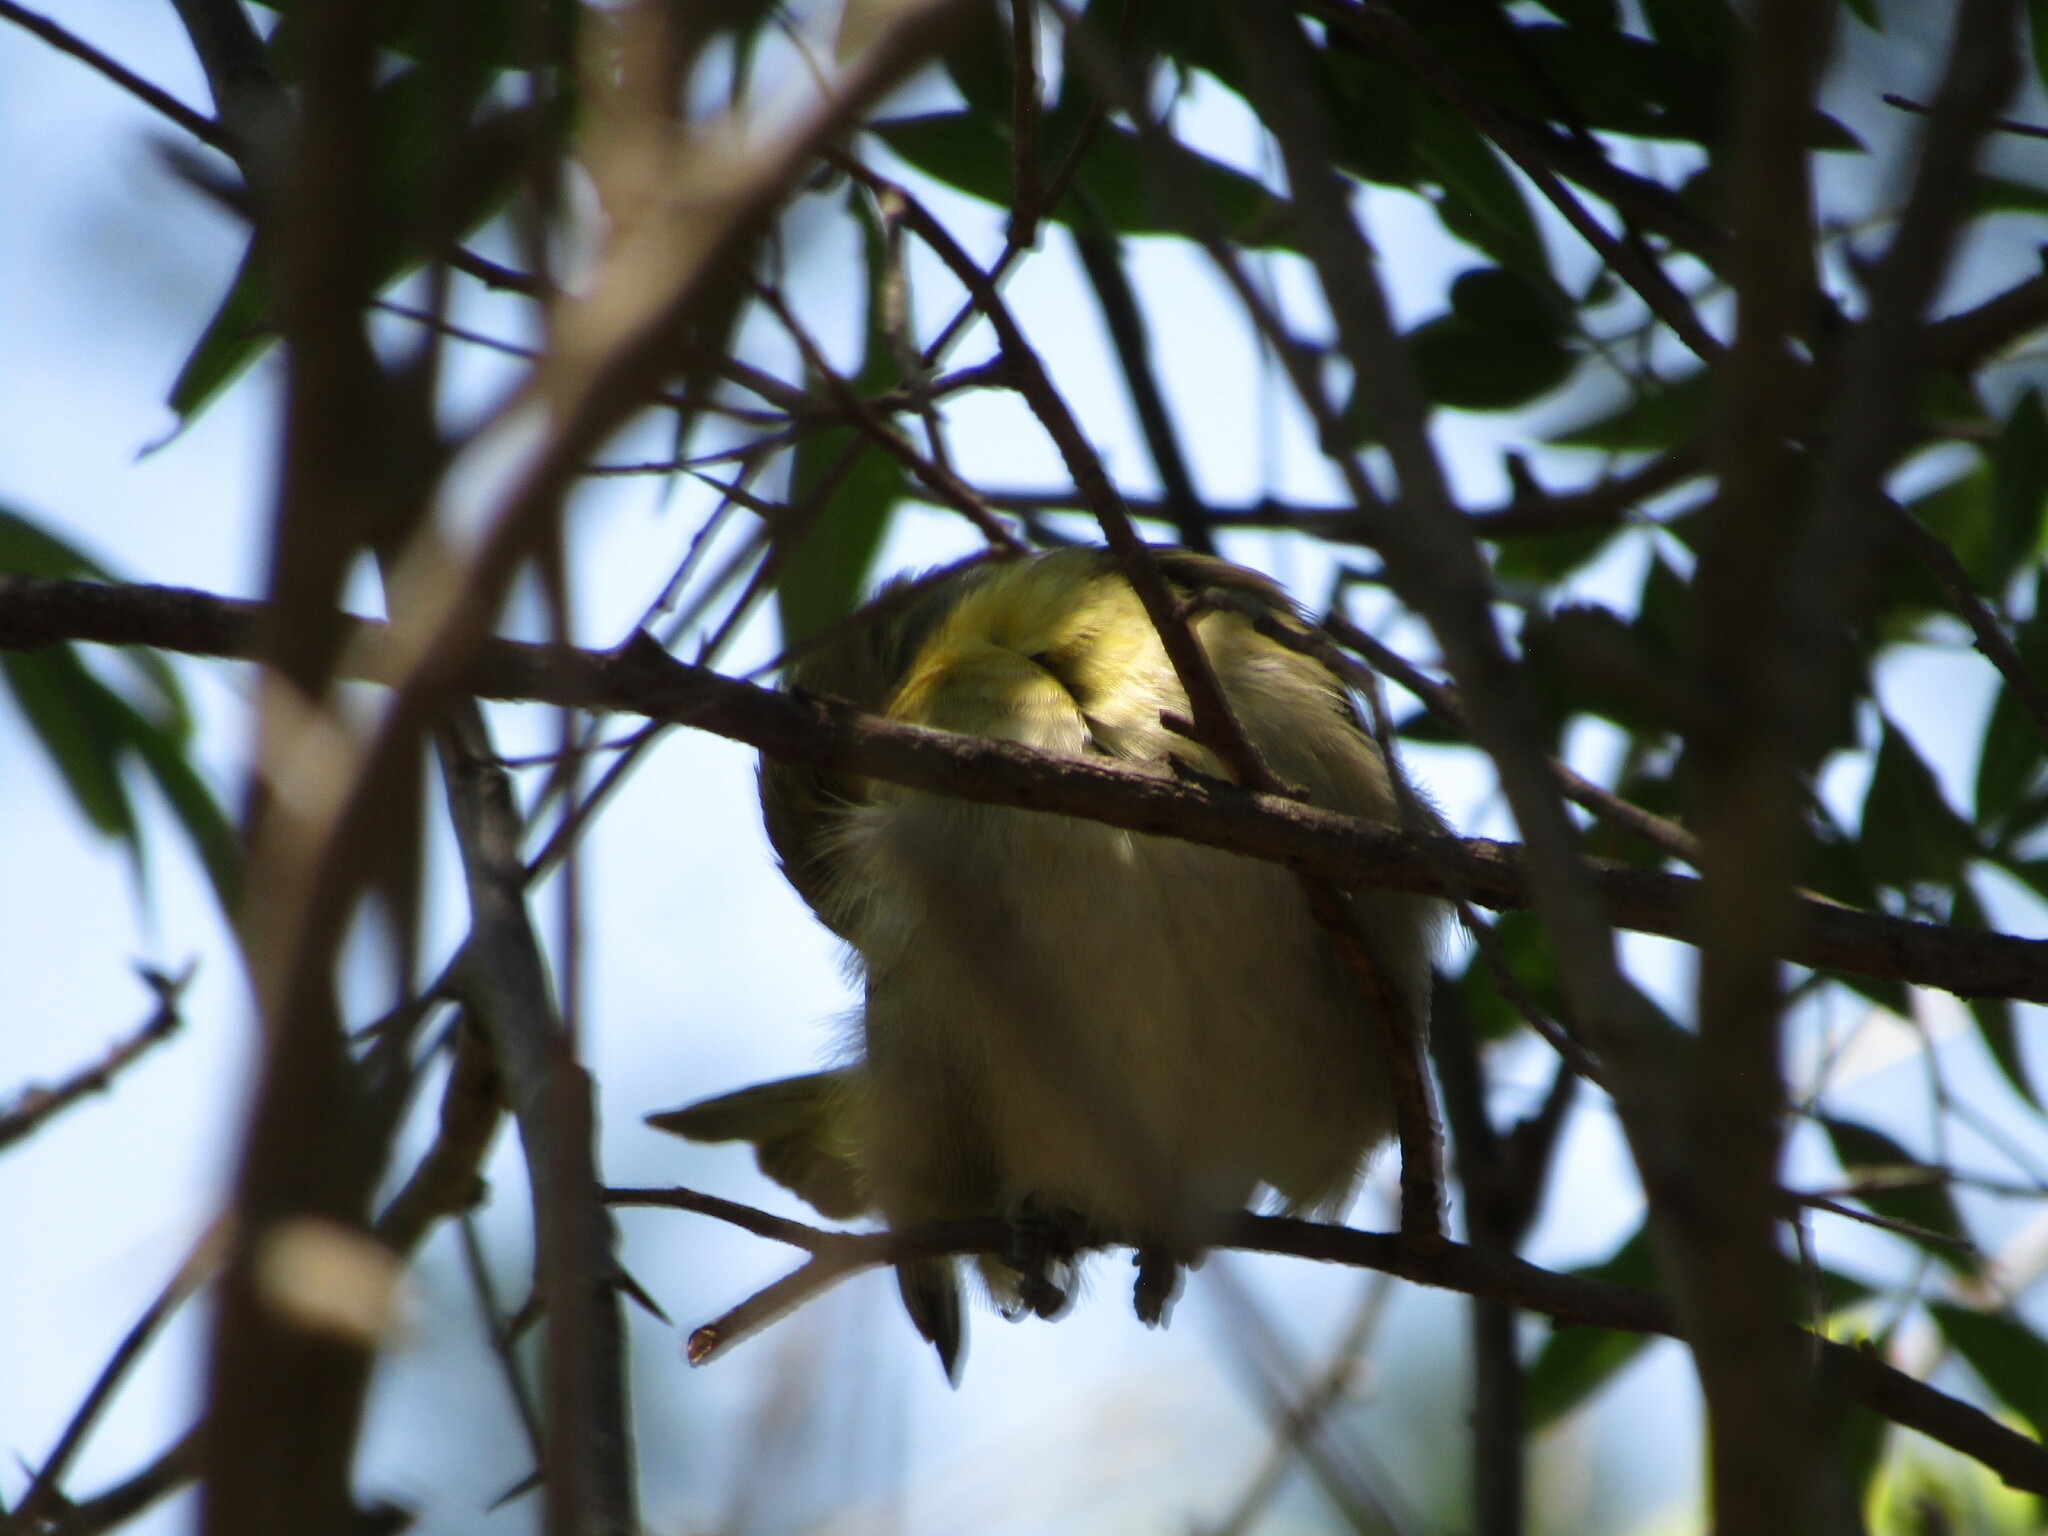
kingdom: Animalia
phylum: Chordata
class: Aves
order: Passeriformes
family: Ploceidae
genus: Ploceus
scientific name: Ploceus velatus
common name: Southern masked weaver
